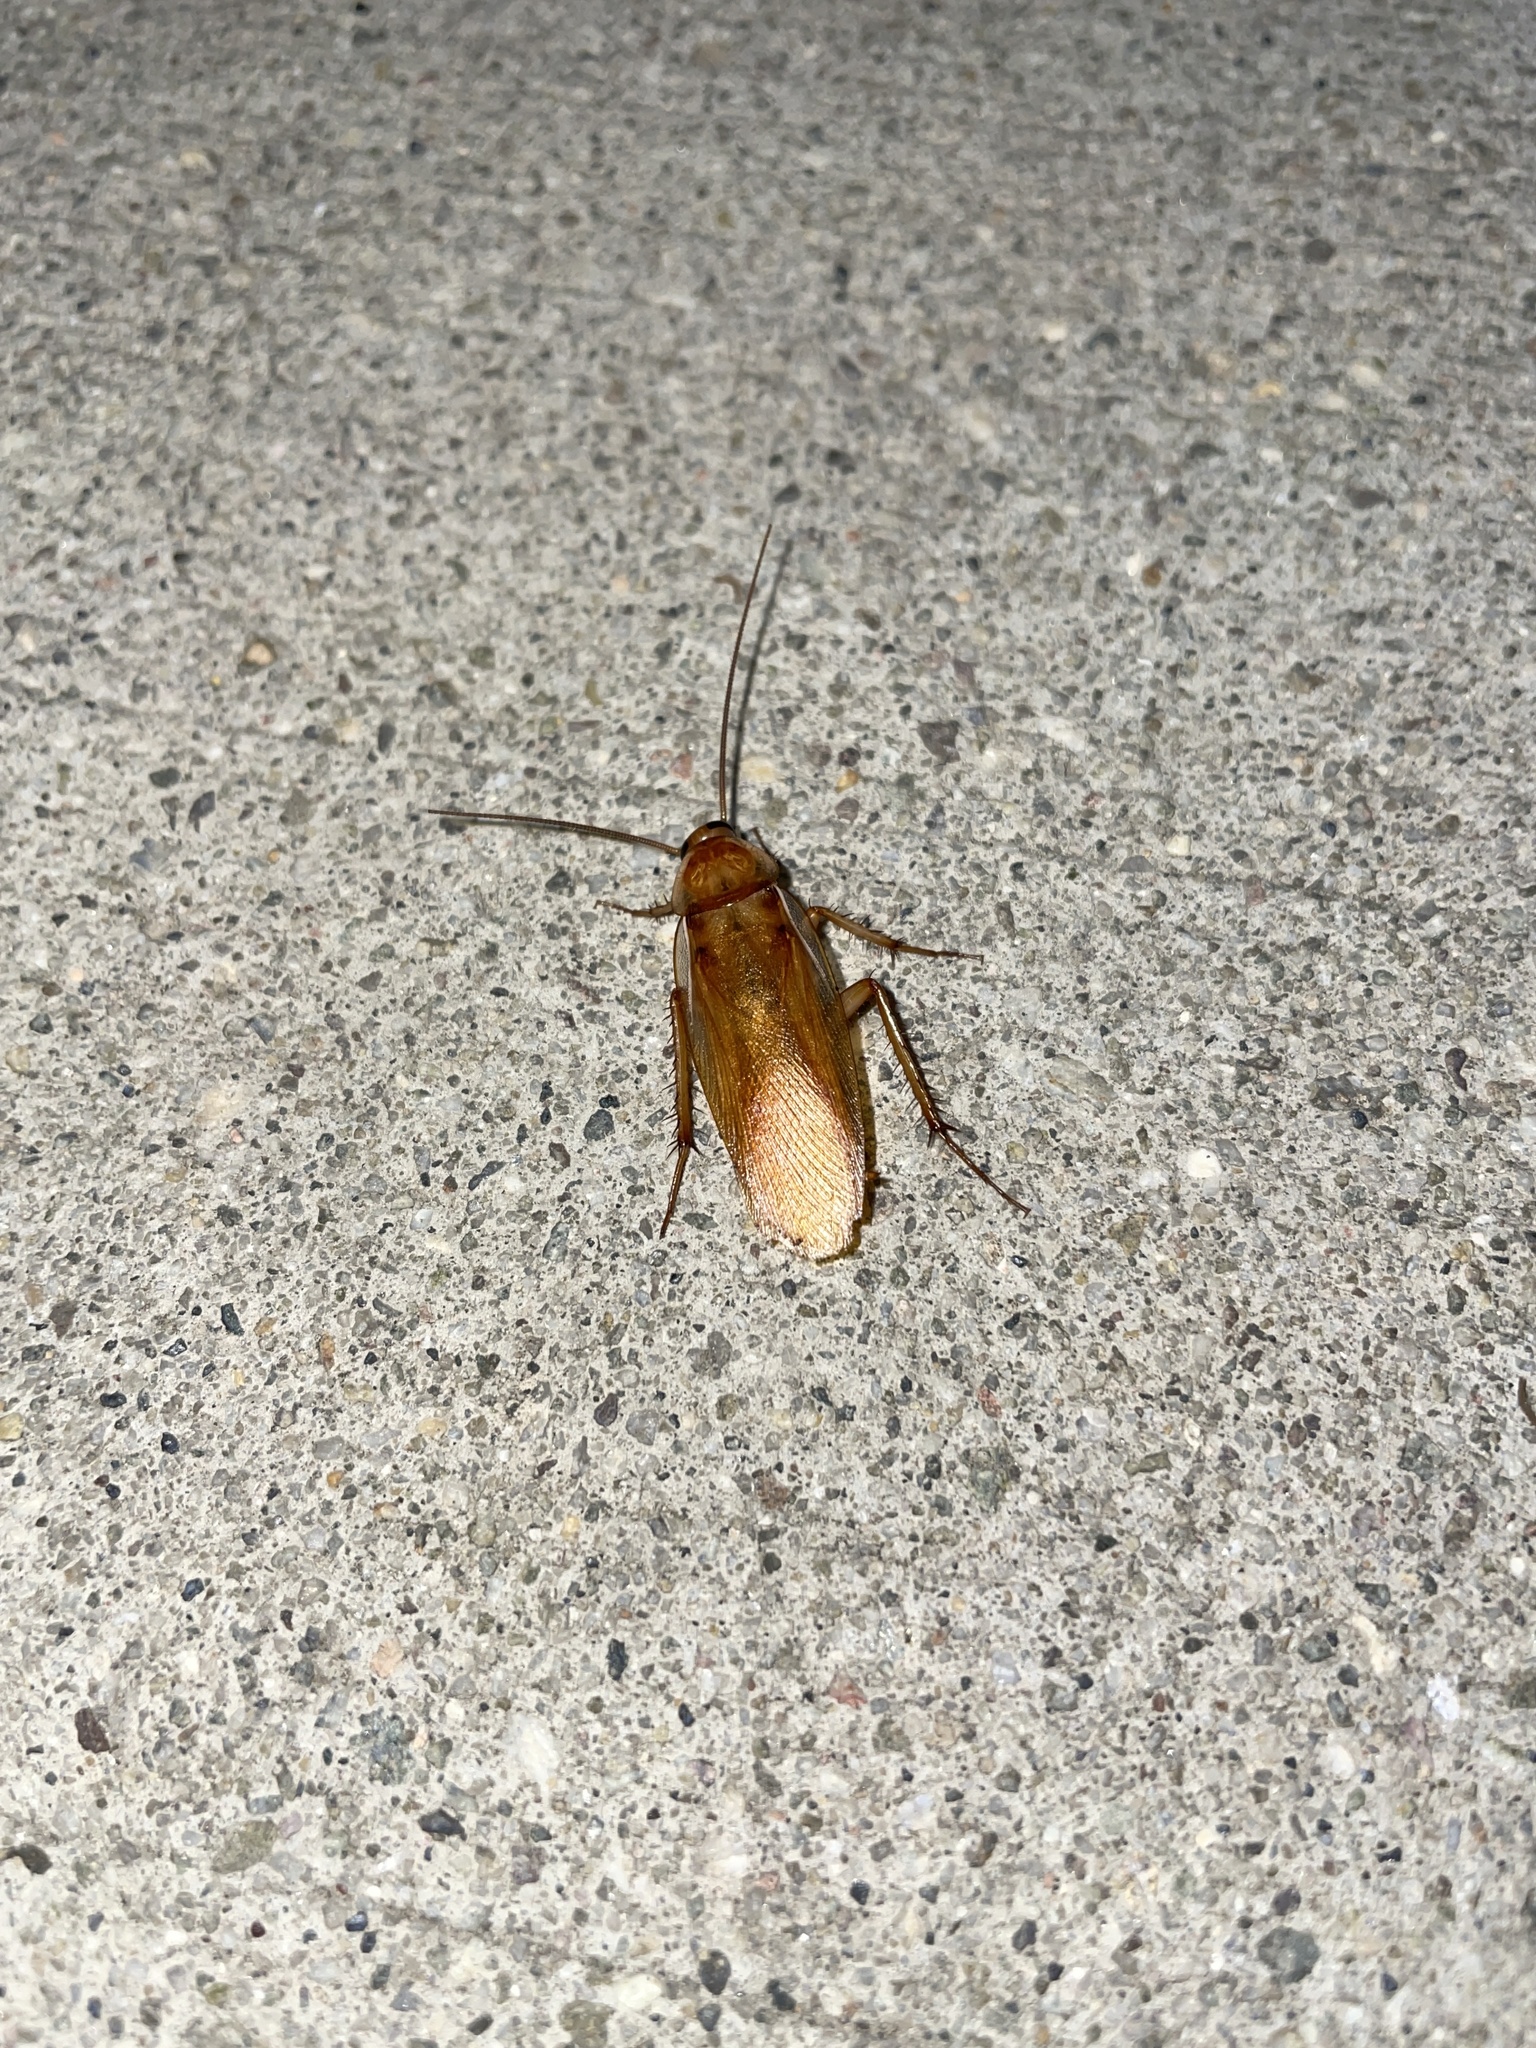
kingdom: Animalia
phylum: Arthropoda
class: Insecta
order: Blattodea
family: Blattidae
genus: Periplaneta
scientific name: Periplaneta lateralis
